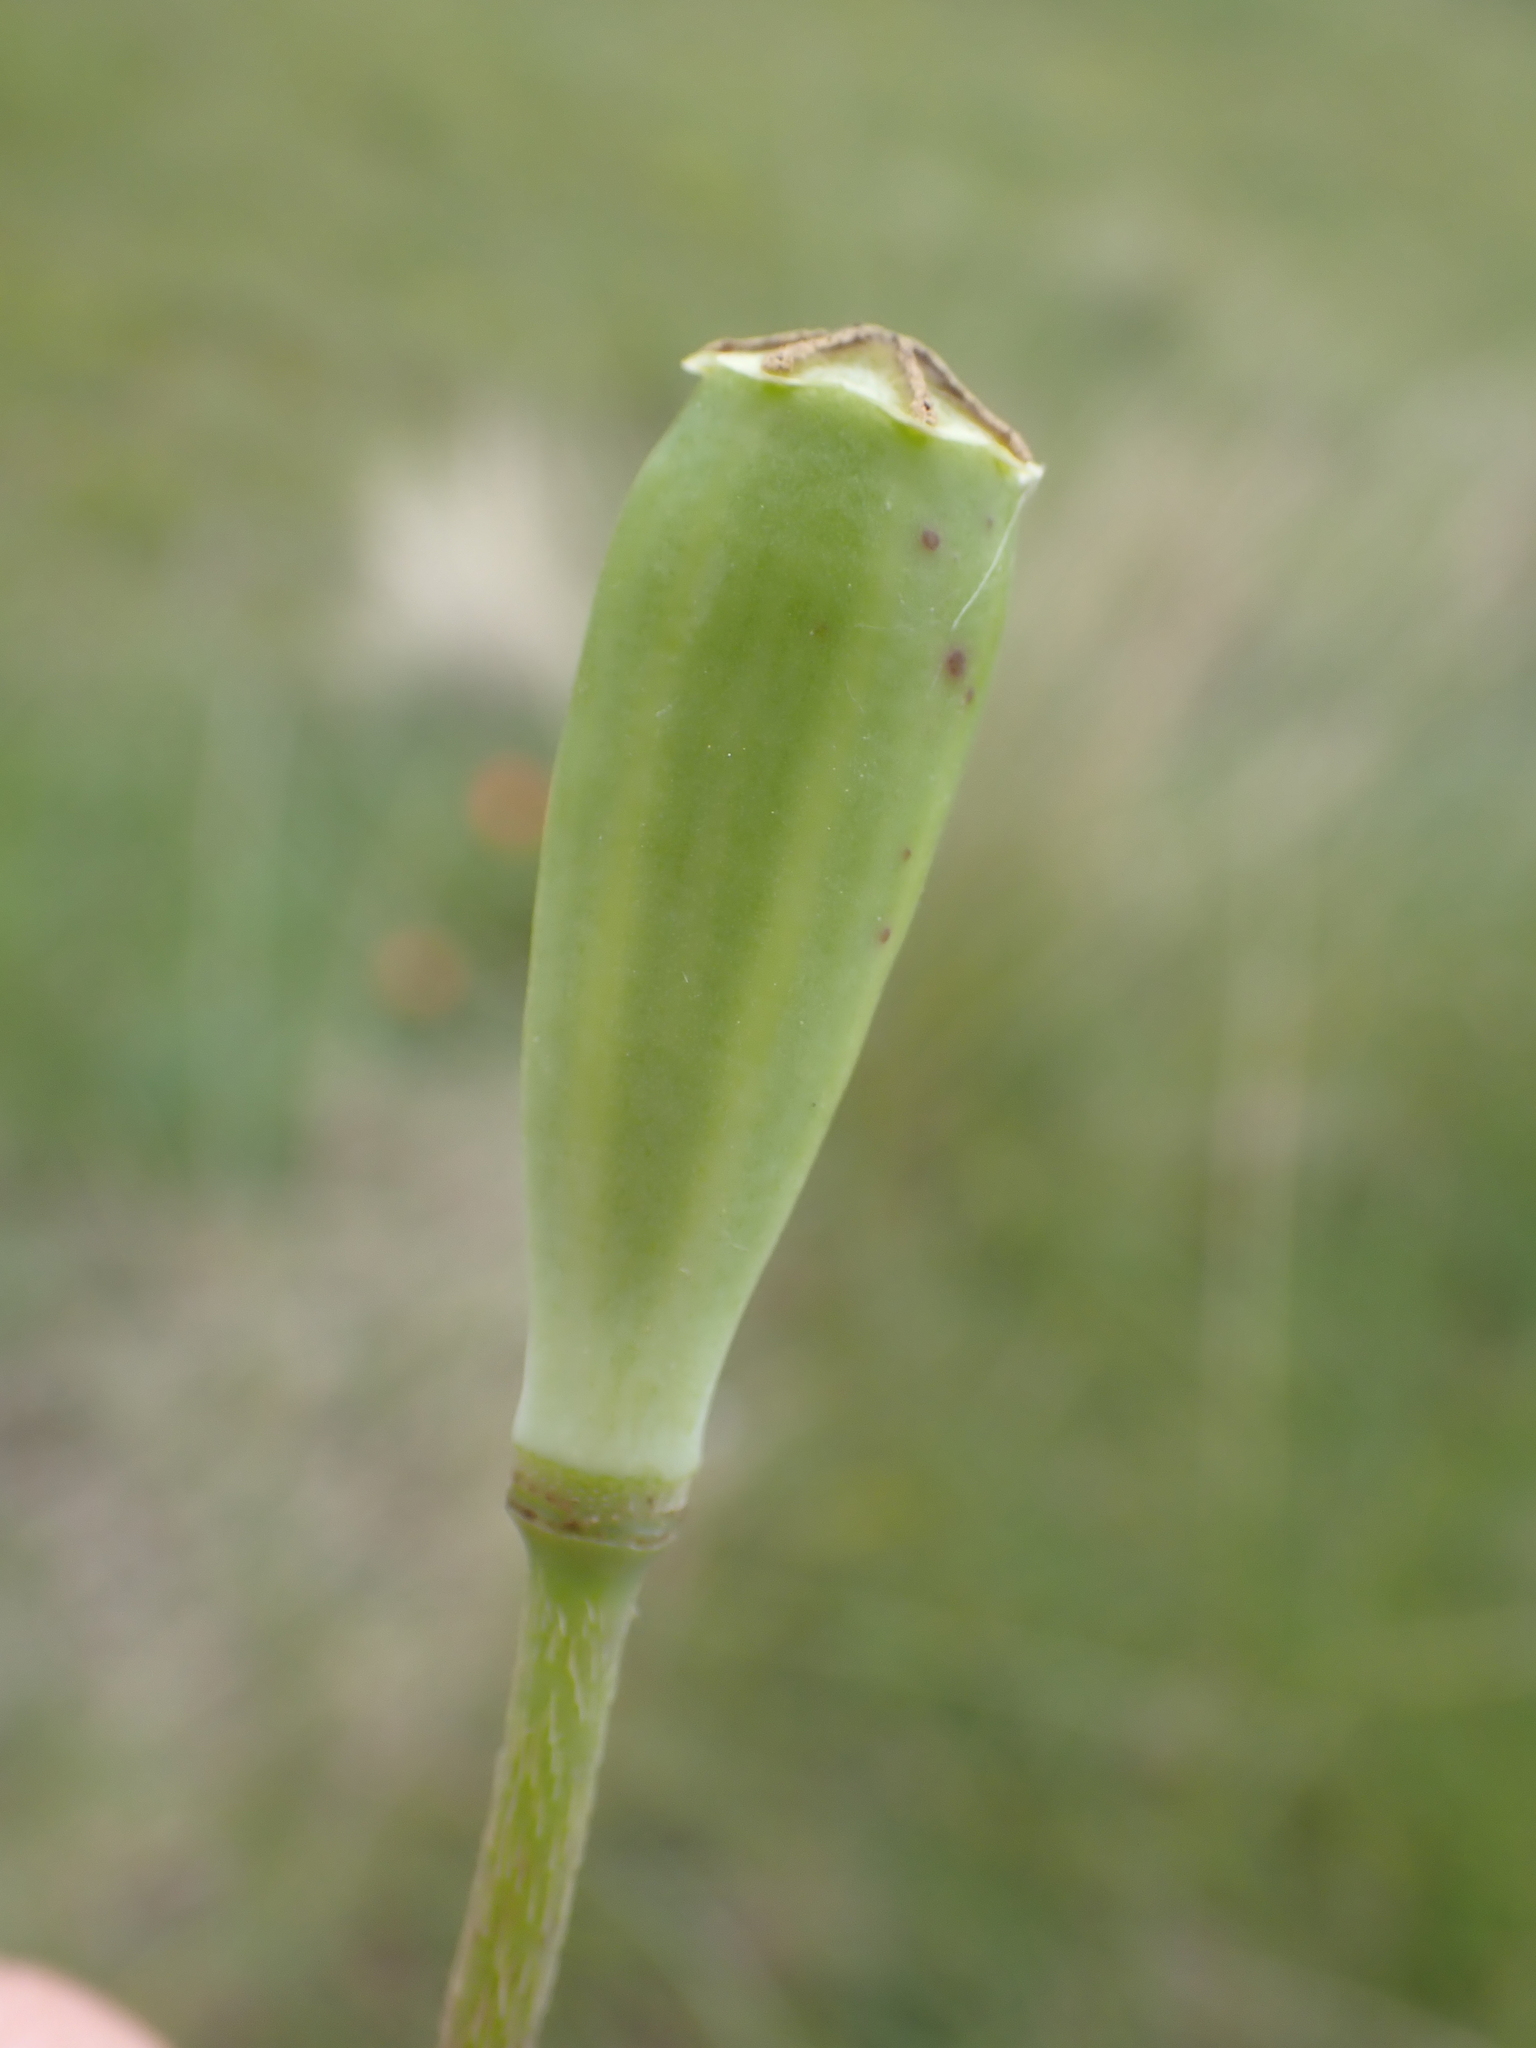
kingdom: Plantae
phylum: Tracheophyta
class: Magnoliopsida
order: Ranunculales
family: Papaveraceae
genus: Papaver
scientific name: Papaver dubium
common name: Long-headed poppy
